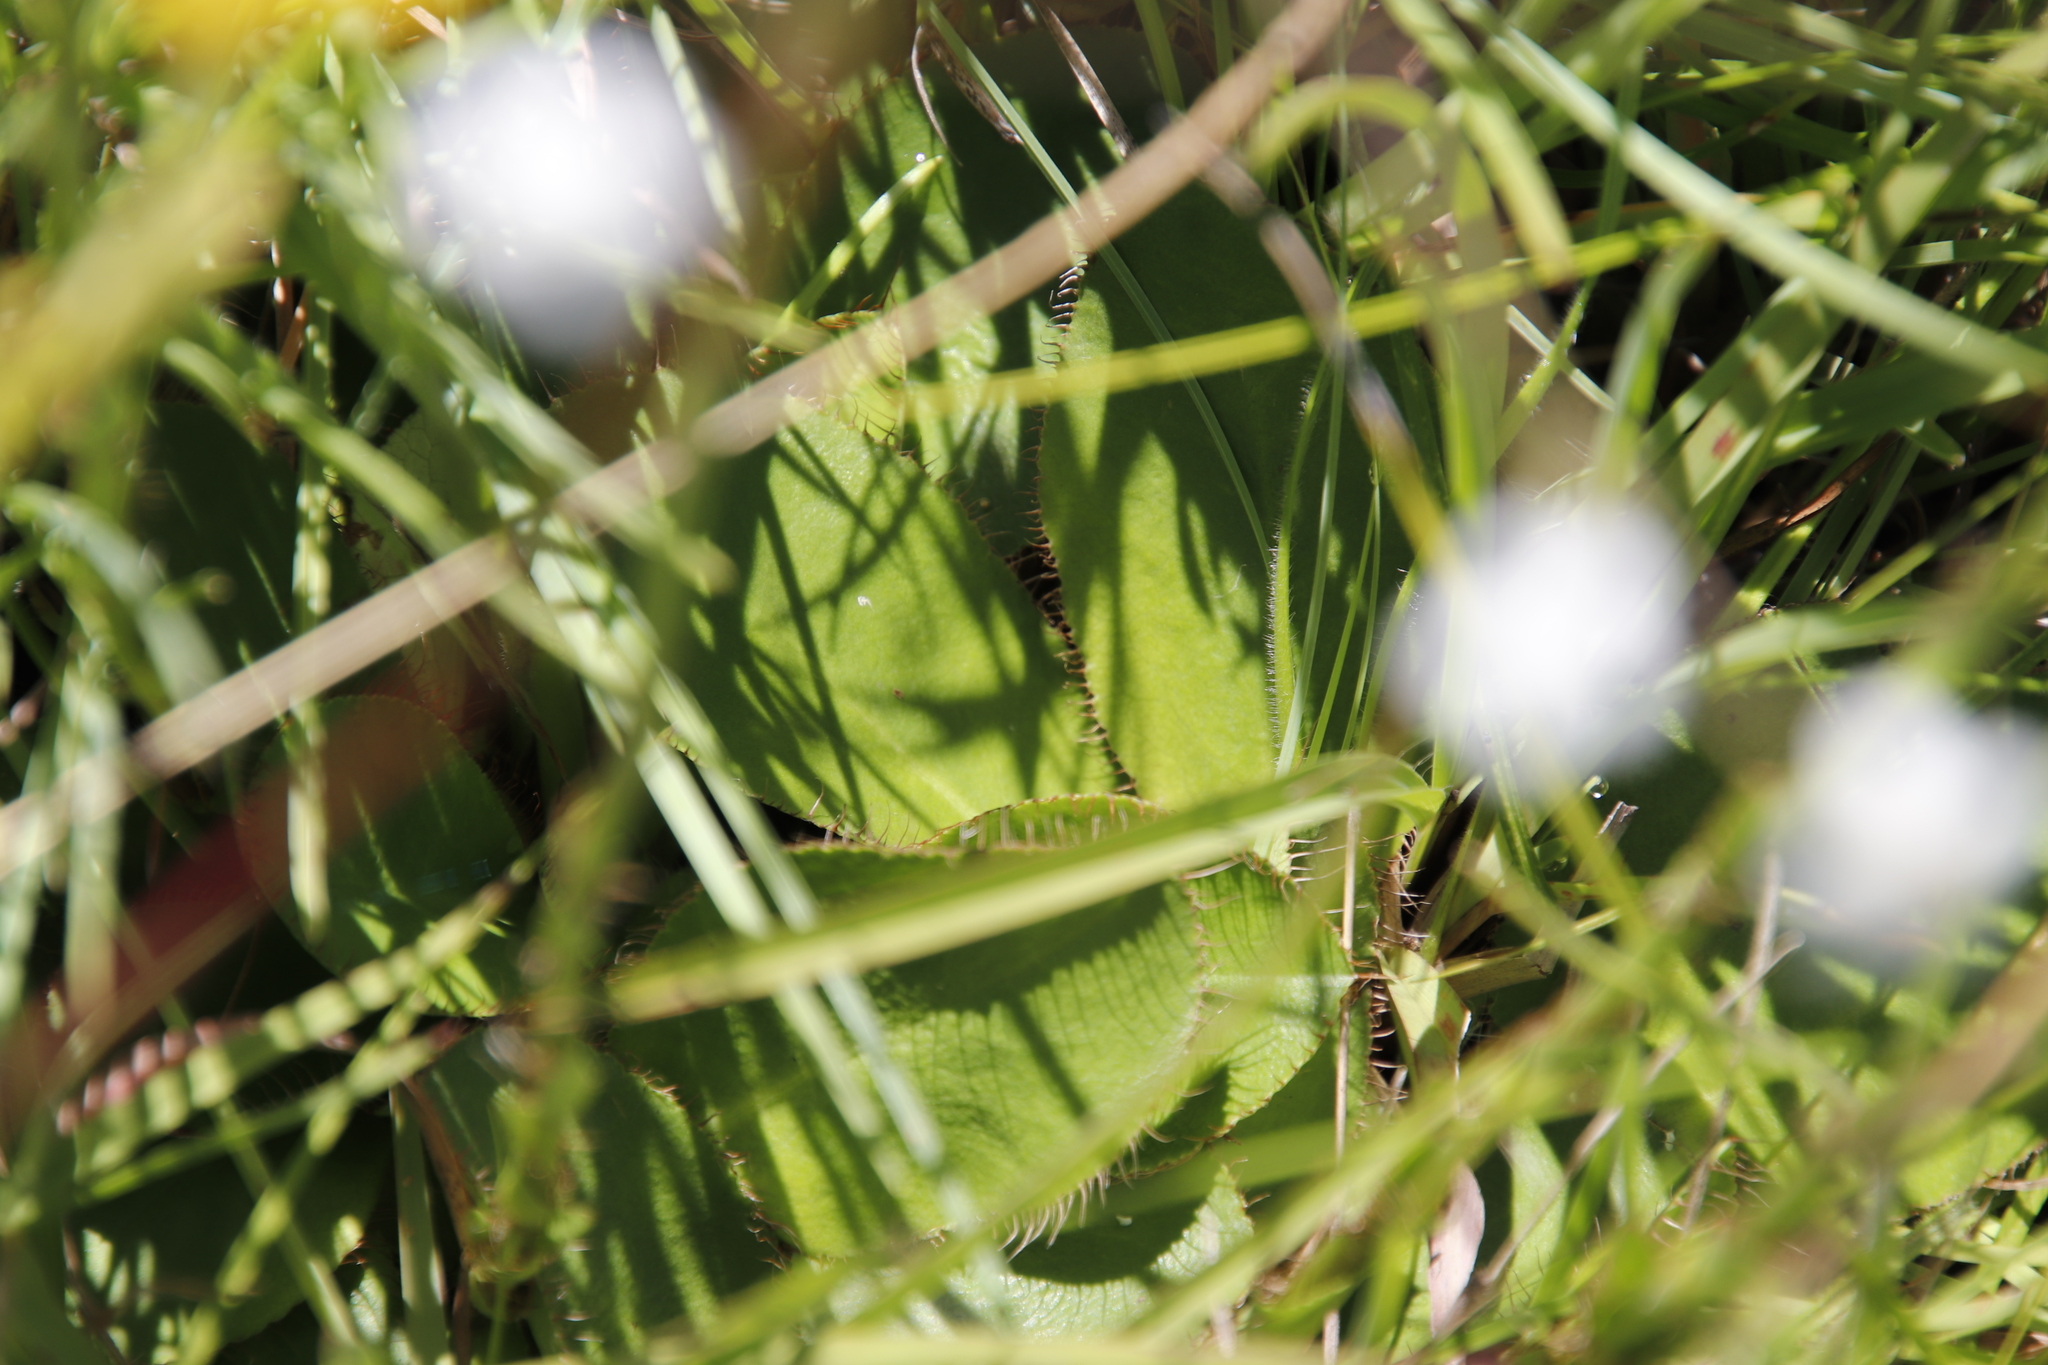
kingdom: Plantae
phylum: Tracheophyta
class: Magnoliopsida
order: Apiales
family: Apiaceae
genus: Alepidea
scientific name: Alepidea natalensis
